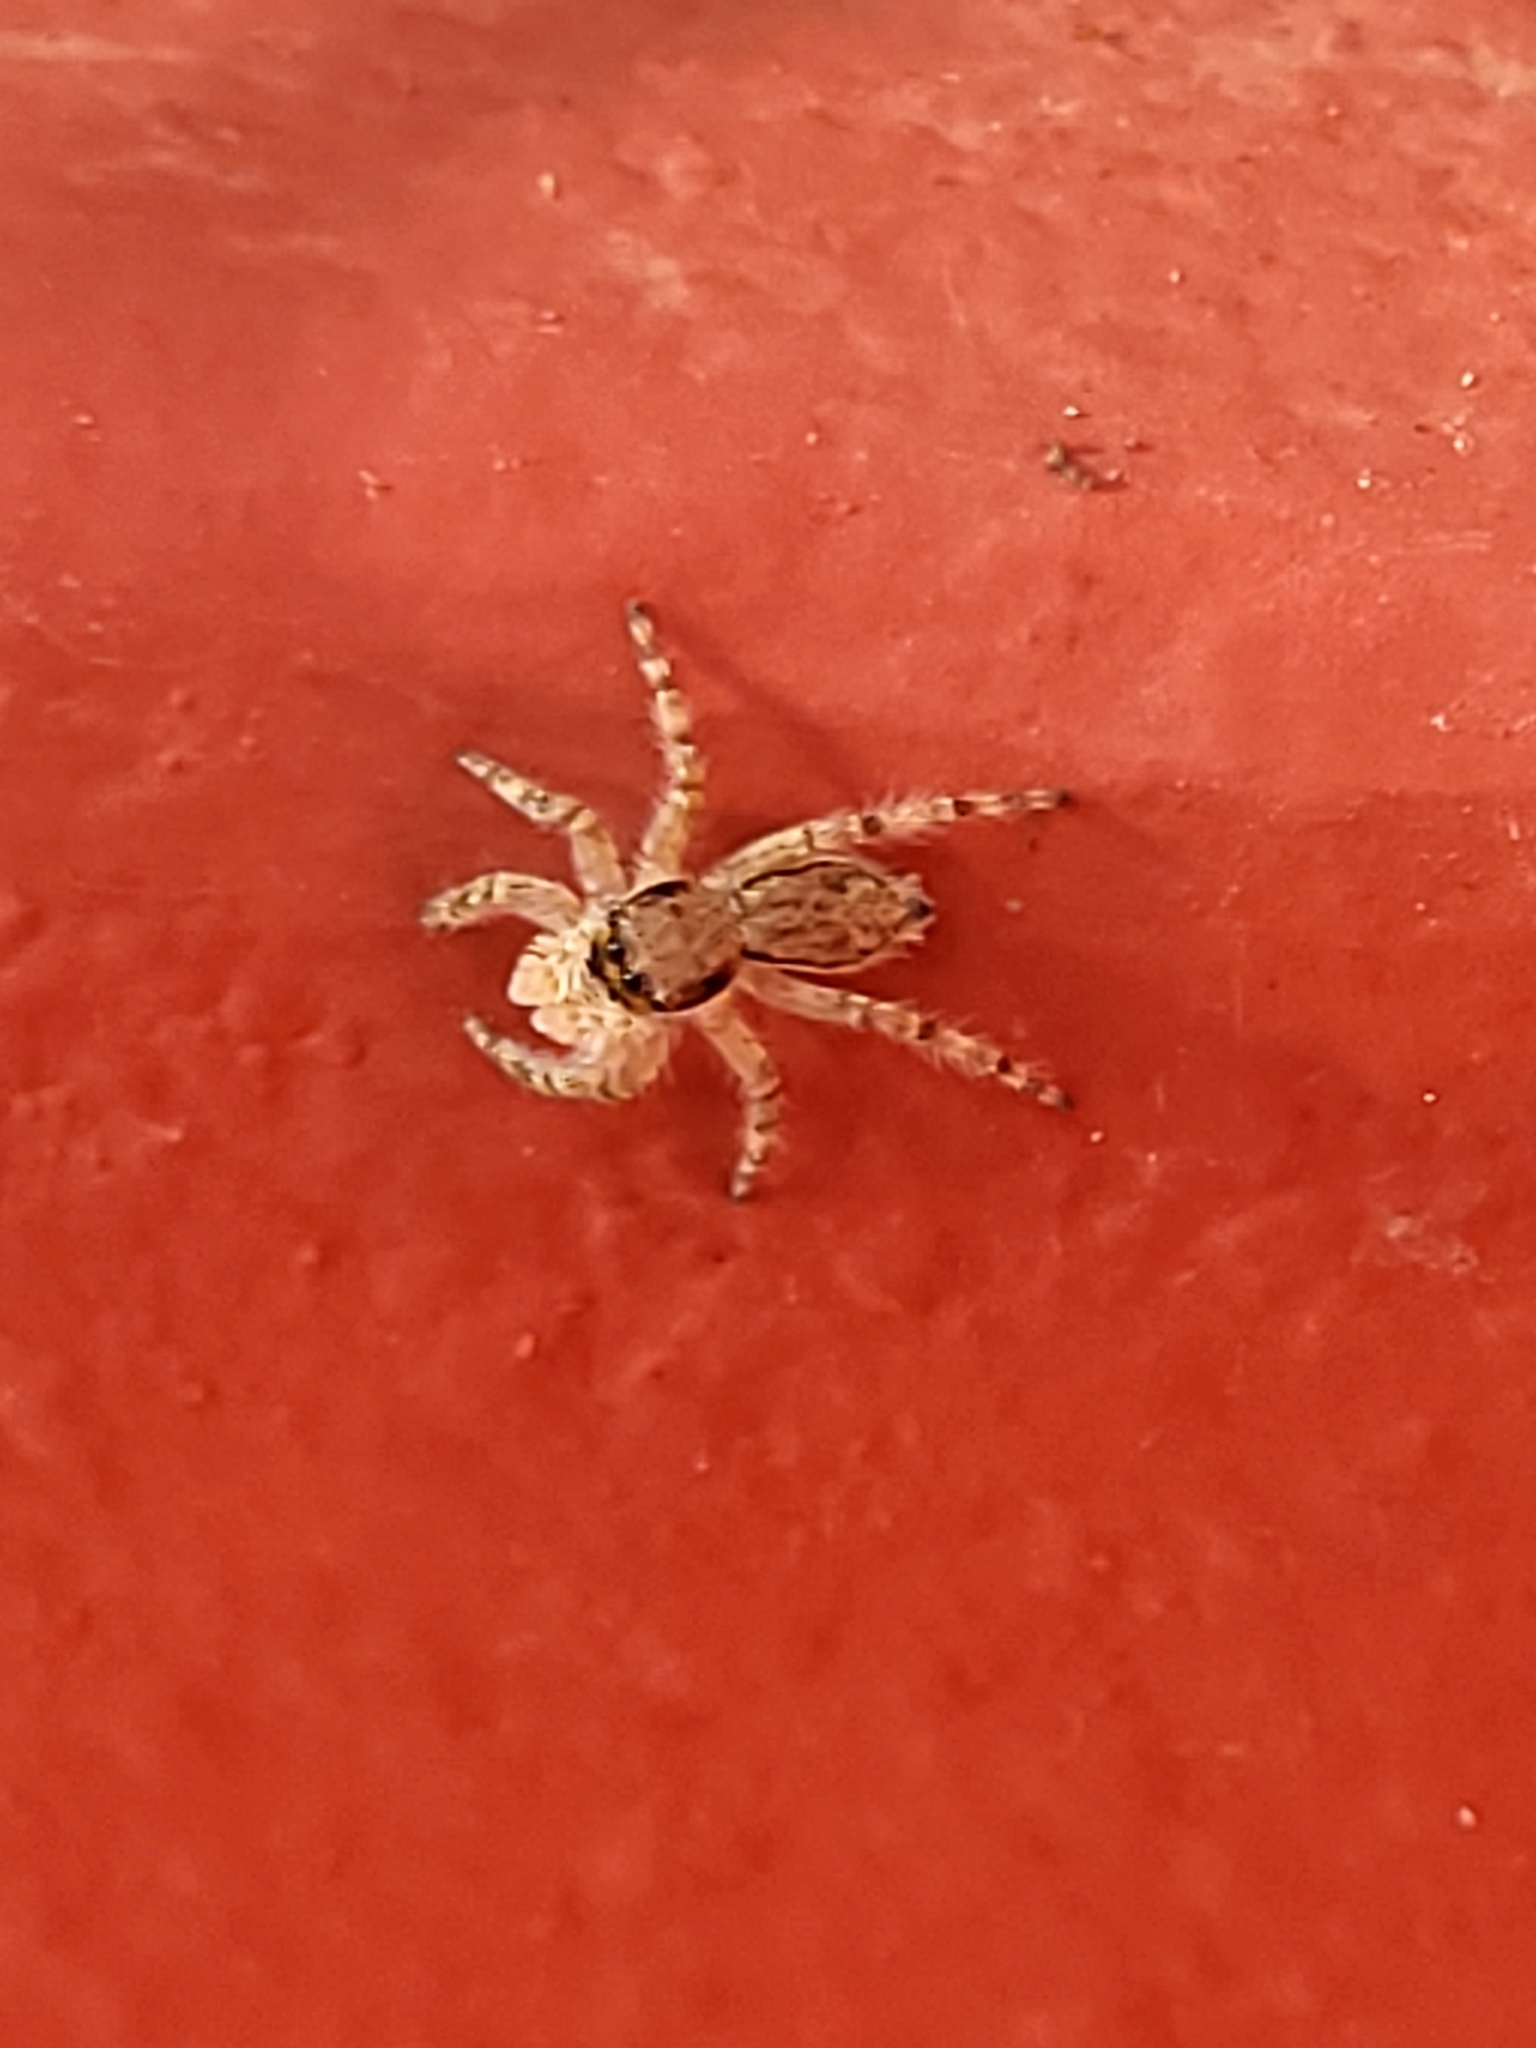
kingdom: Animalia
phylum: Arthropoda
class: Arachnida
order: Araneae
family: Salticidae
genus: Menemerus
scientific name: Menemerus bivittatus
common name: Gray wall jumper
